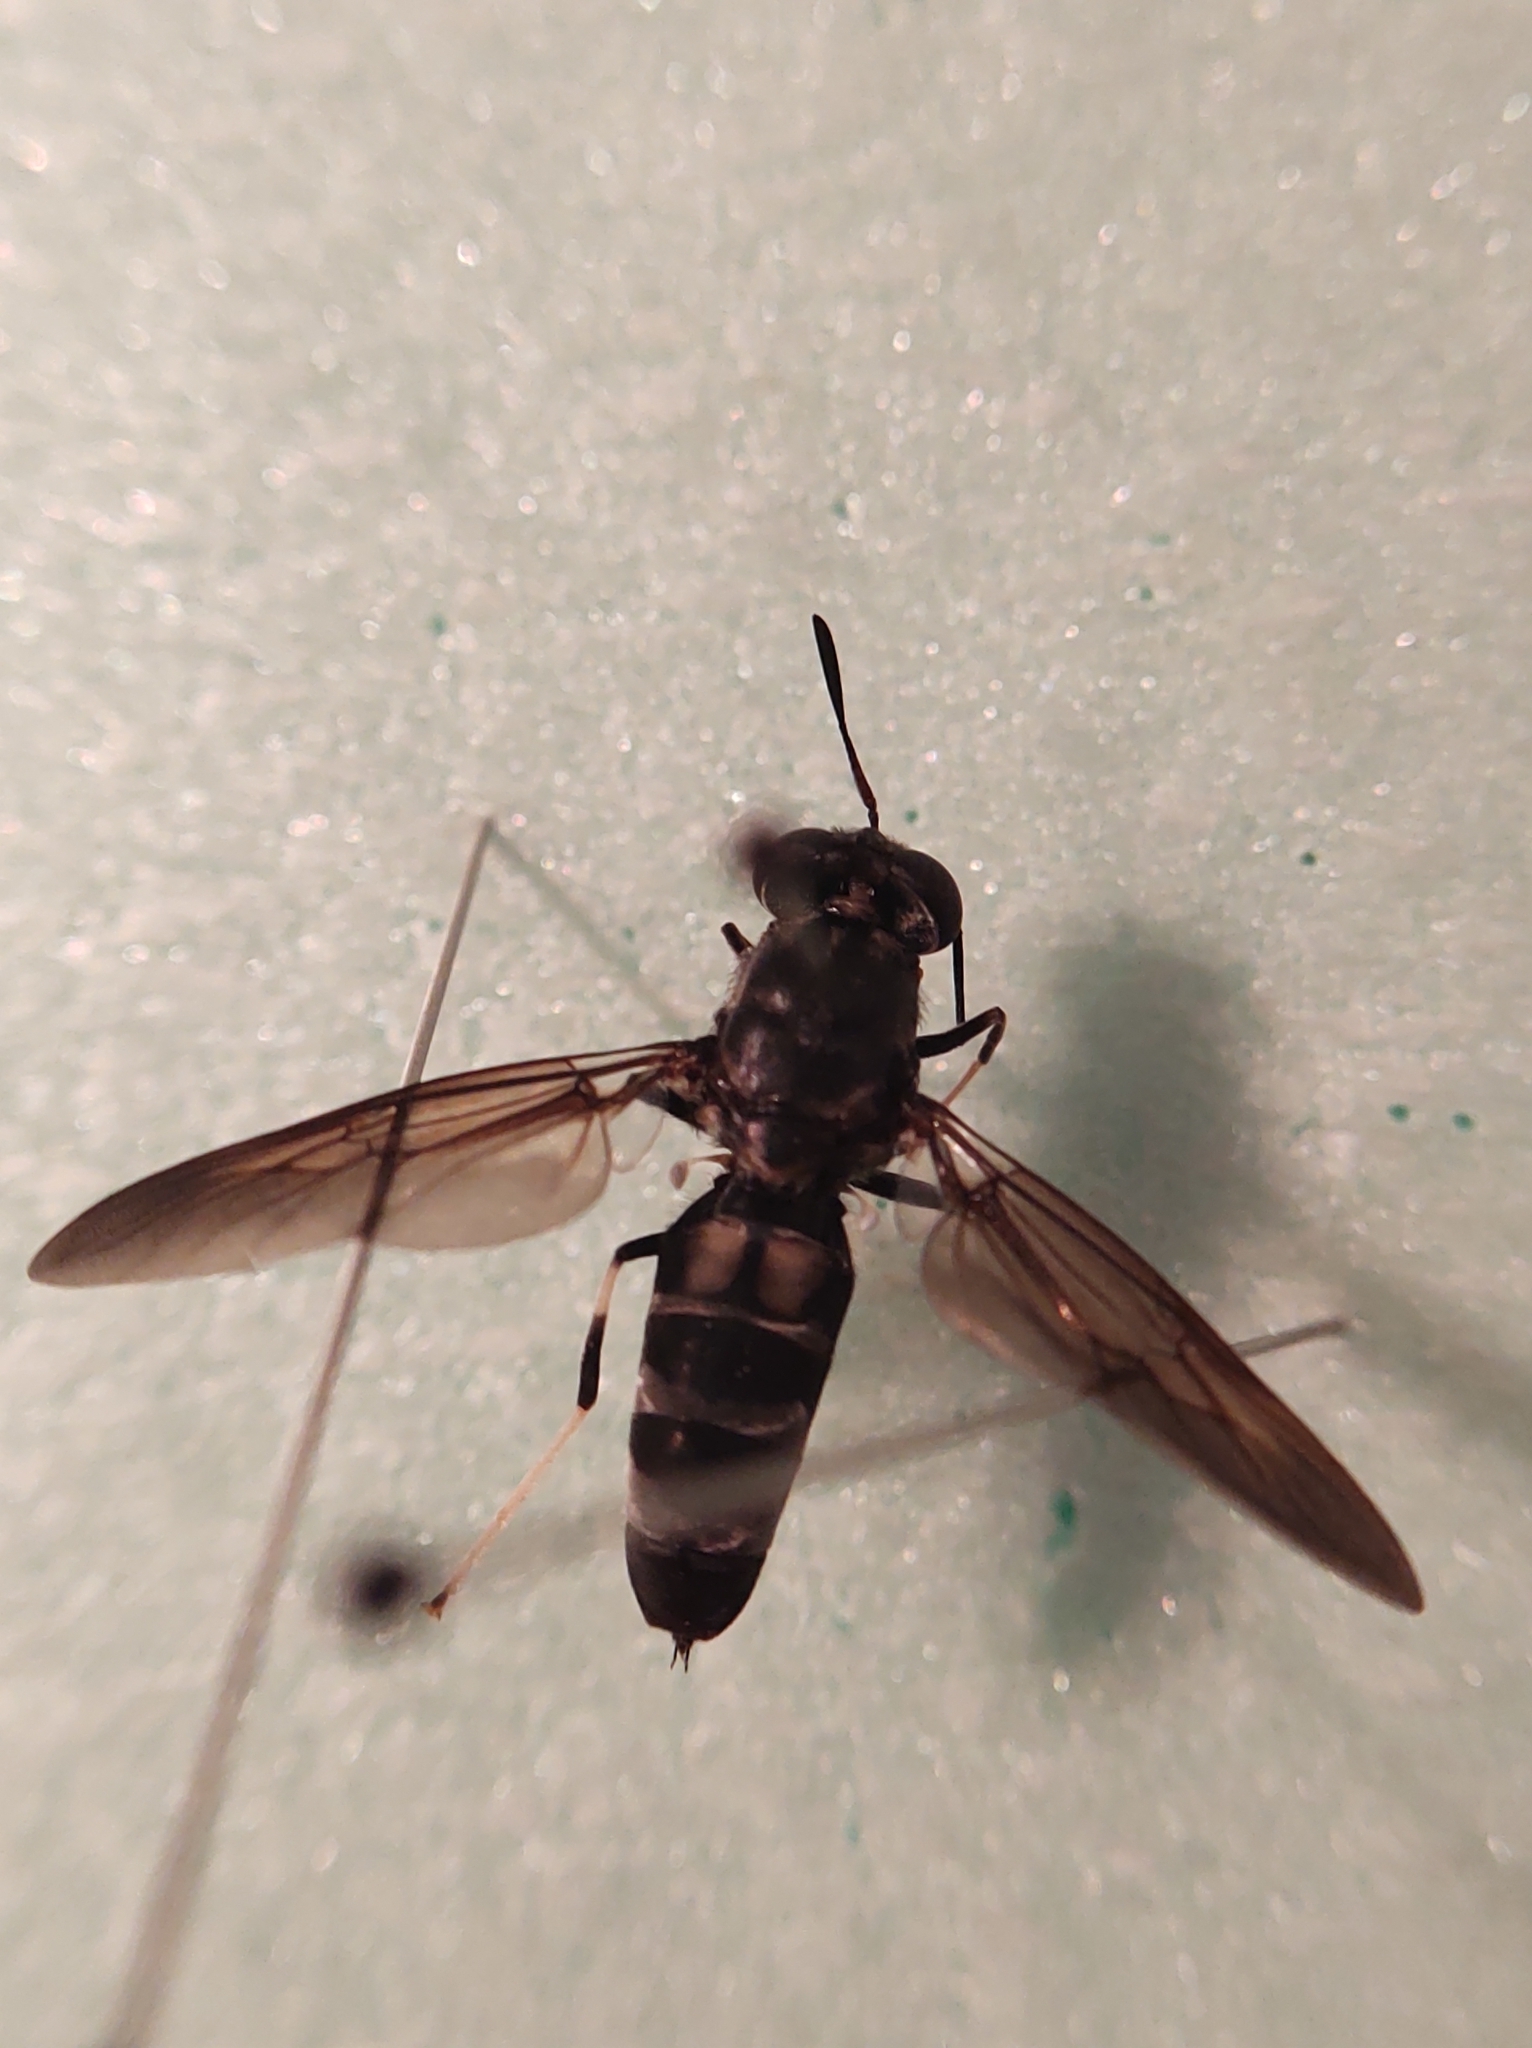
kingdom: Animalia
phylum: Arthropoda
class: Insecta
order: Diptera
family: Stratiomyidae
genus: Hermetia
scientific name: Hermetia illucens
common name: Black soldier fly
